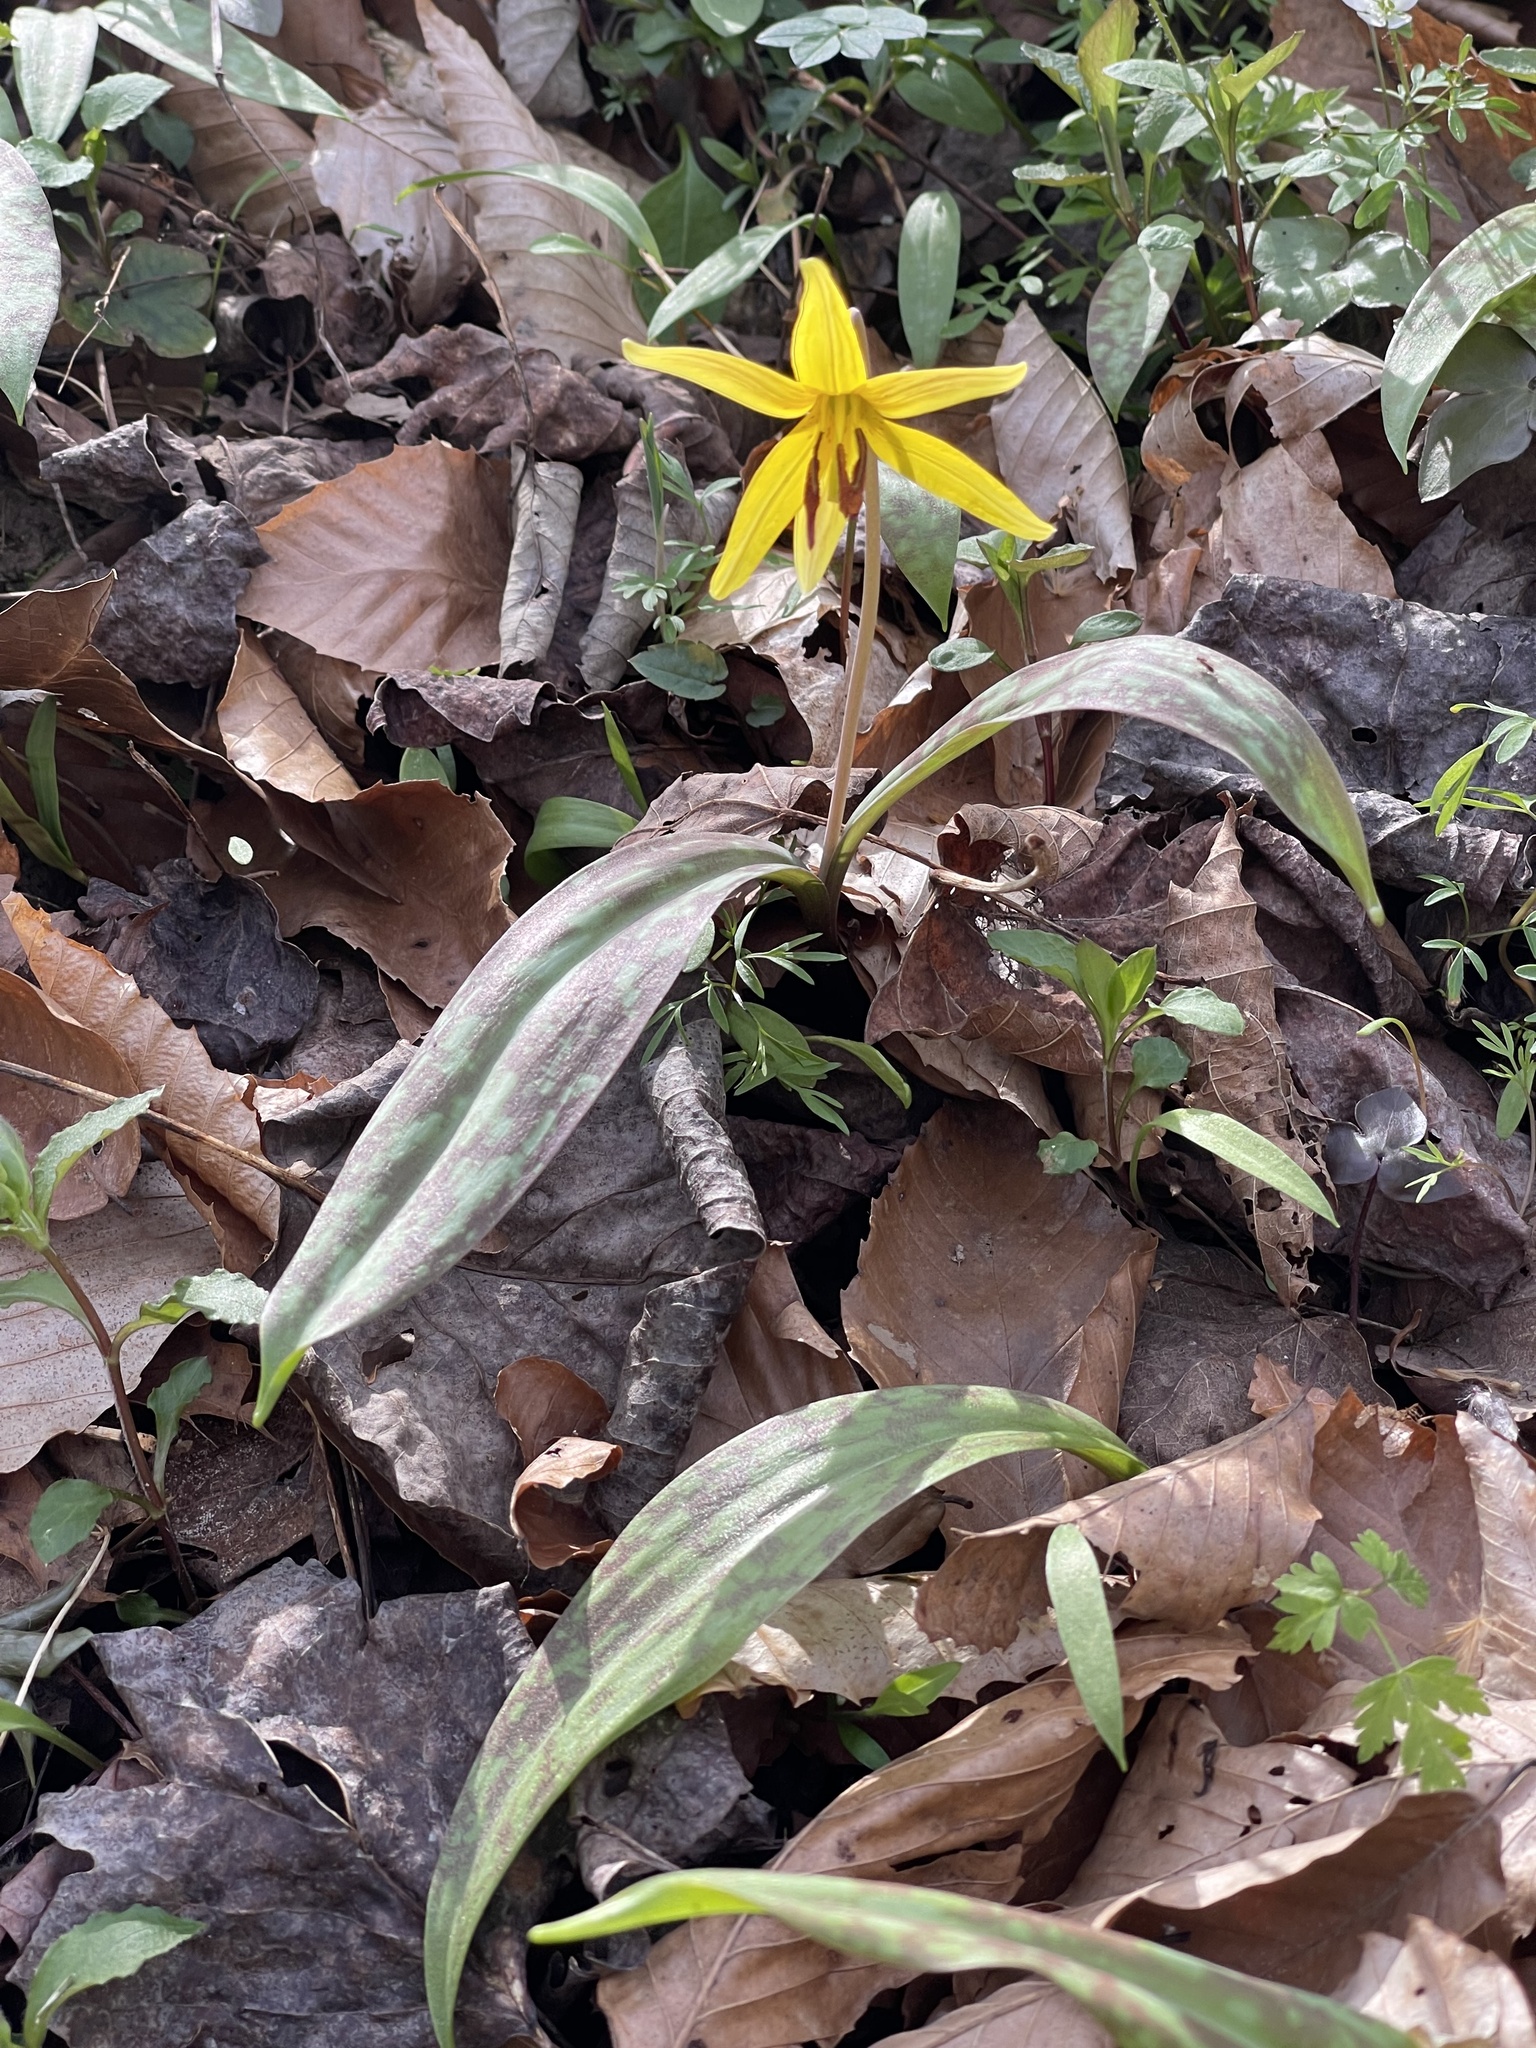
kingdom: Plantae
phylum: Tracheophyta
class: Liliopsida
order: Liliales
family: Liliaceae
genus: Erythronium
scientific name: Erythronium americanum
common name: Yellow adder's-tongue
